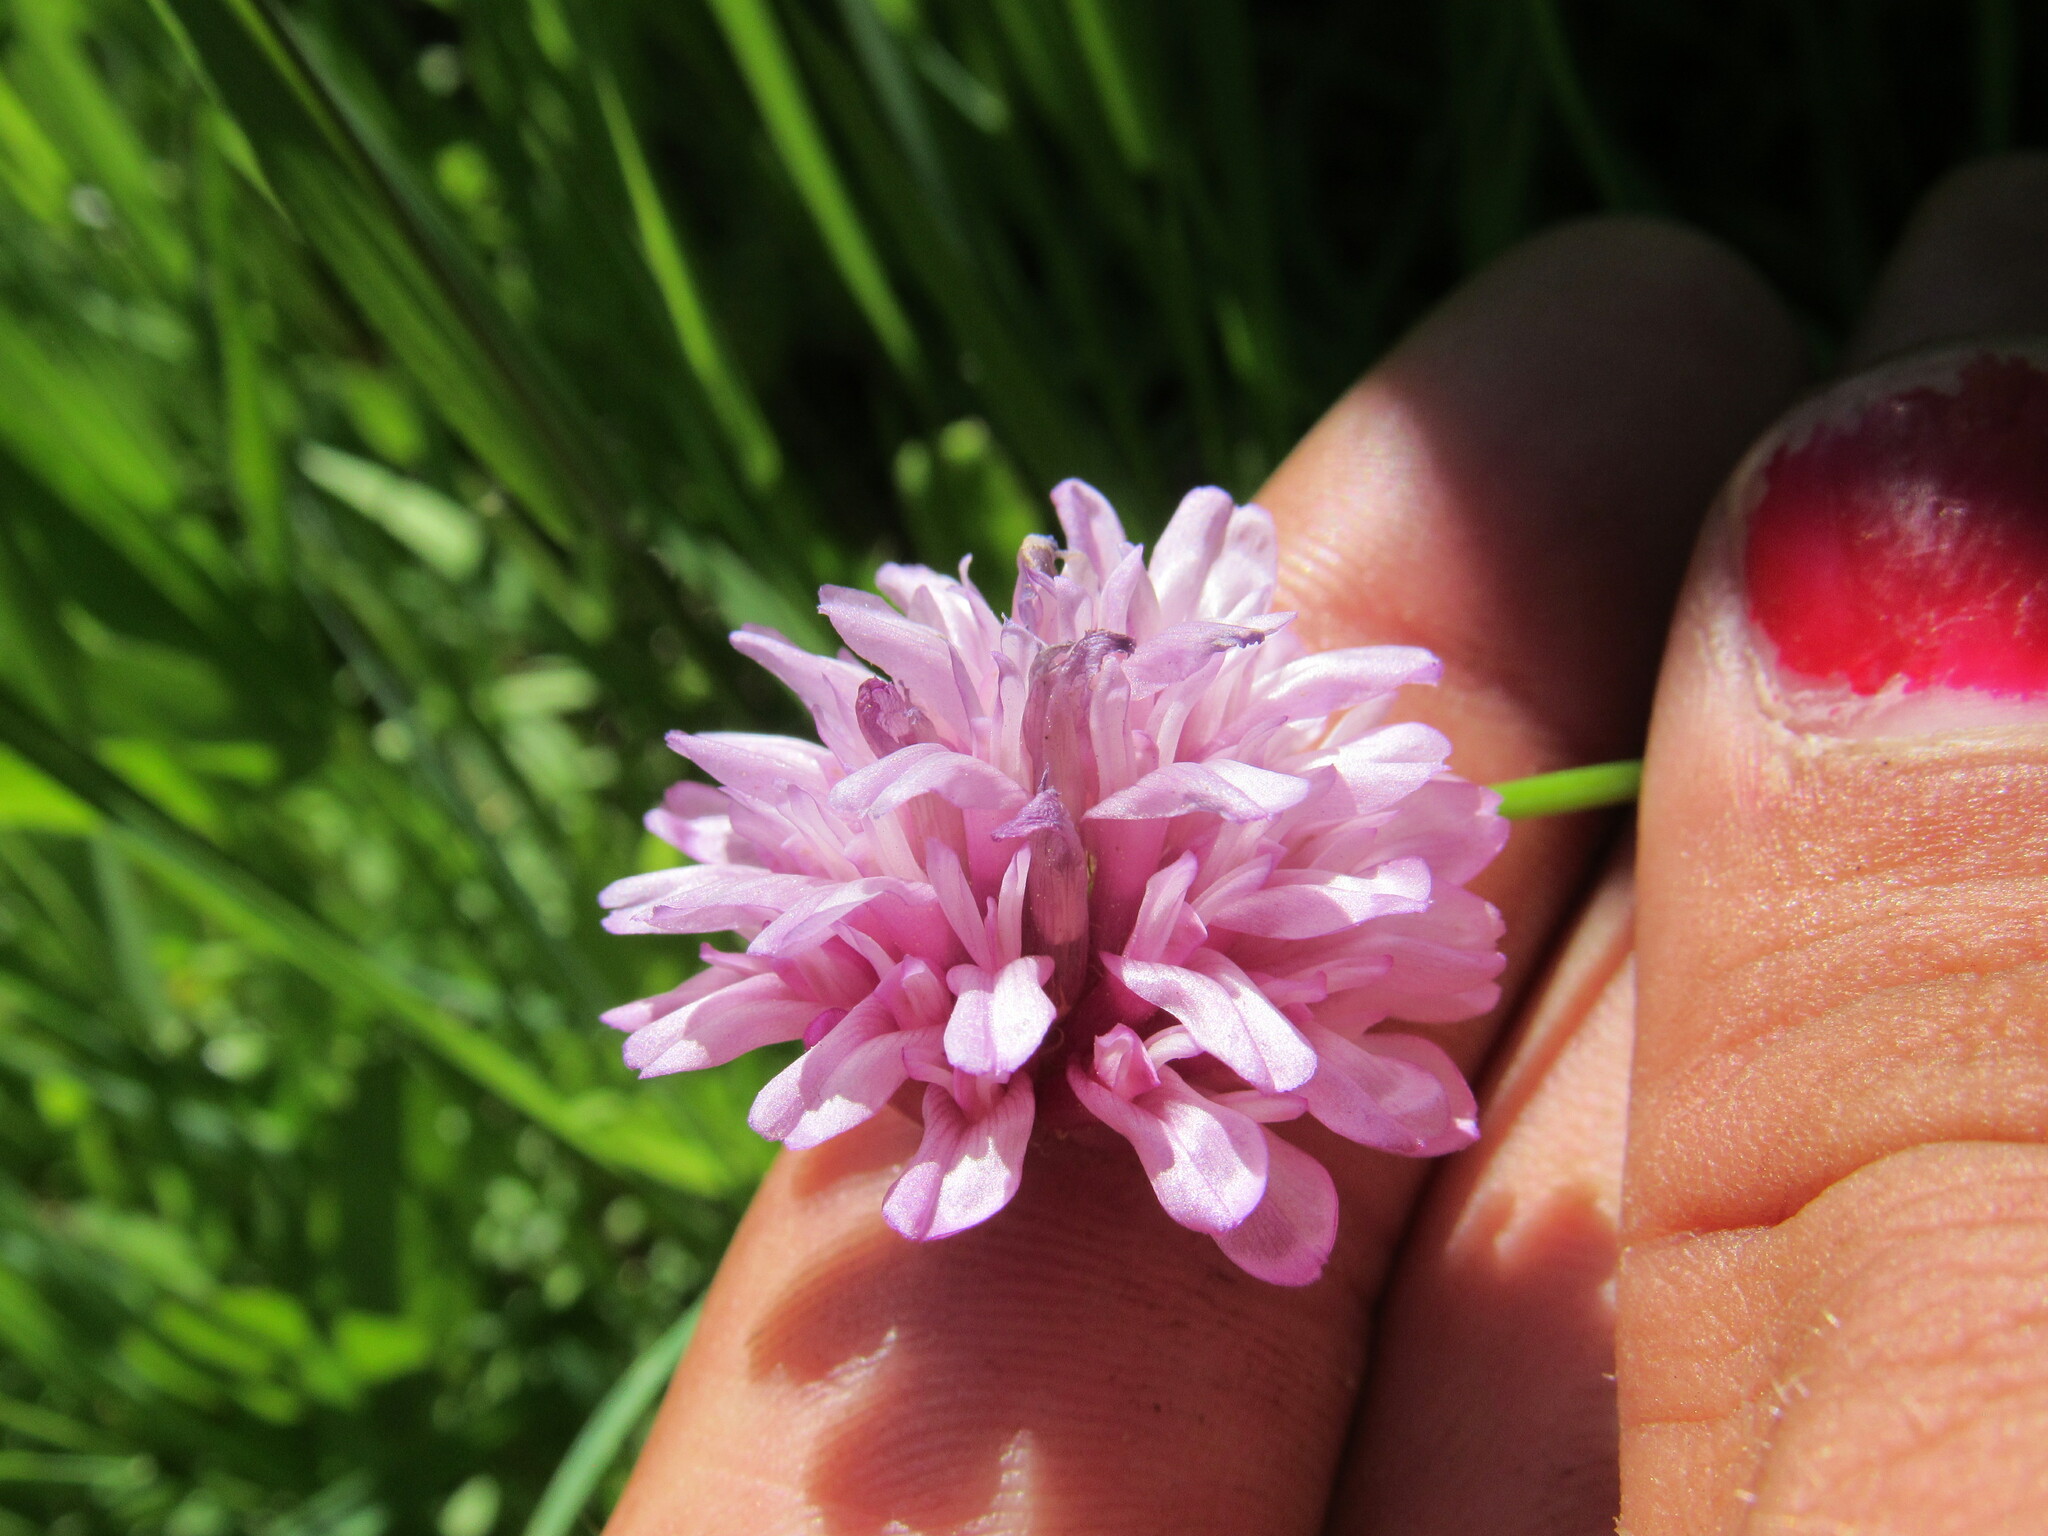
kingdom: Plantae
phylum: Tracheophyta
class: Magnoliopsida
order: Fabales
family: Fabaceae
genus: Trifolium
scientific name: Trifolium kingii
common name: Shasta clover
